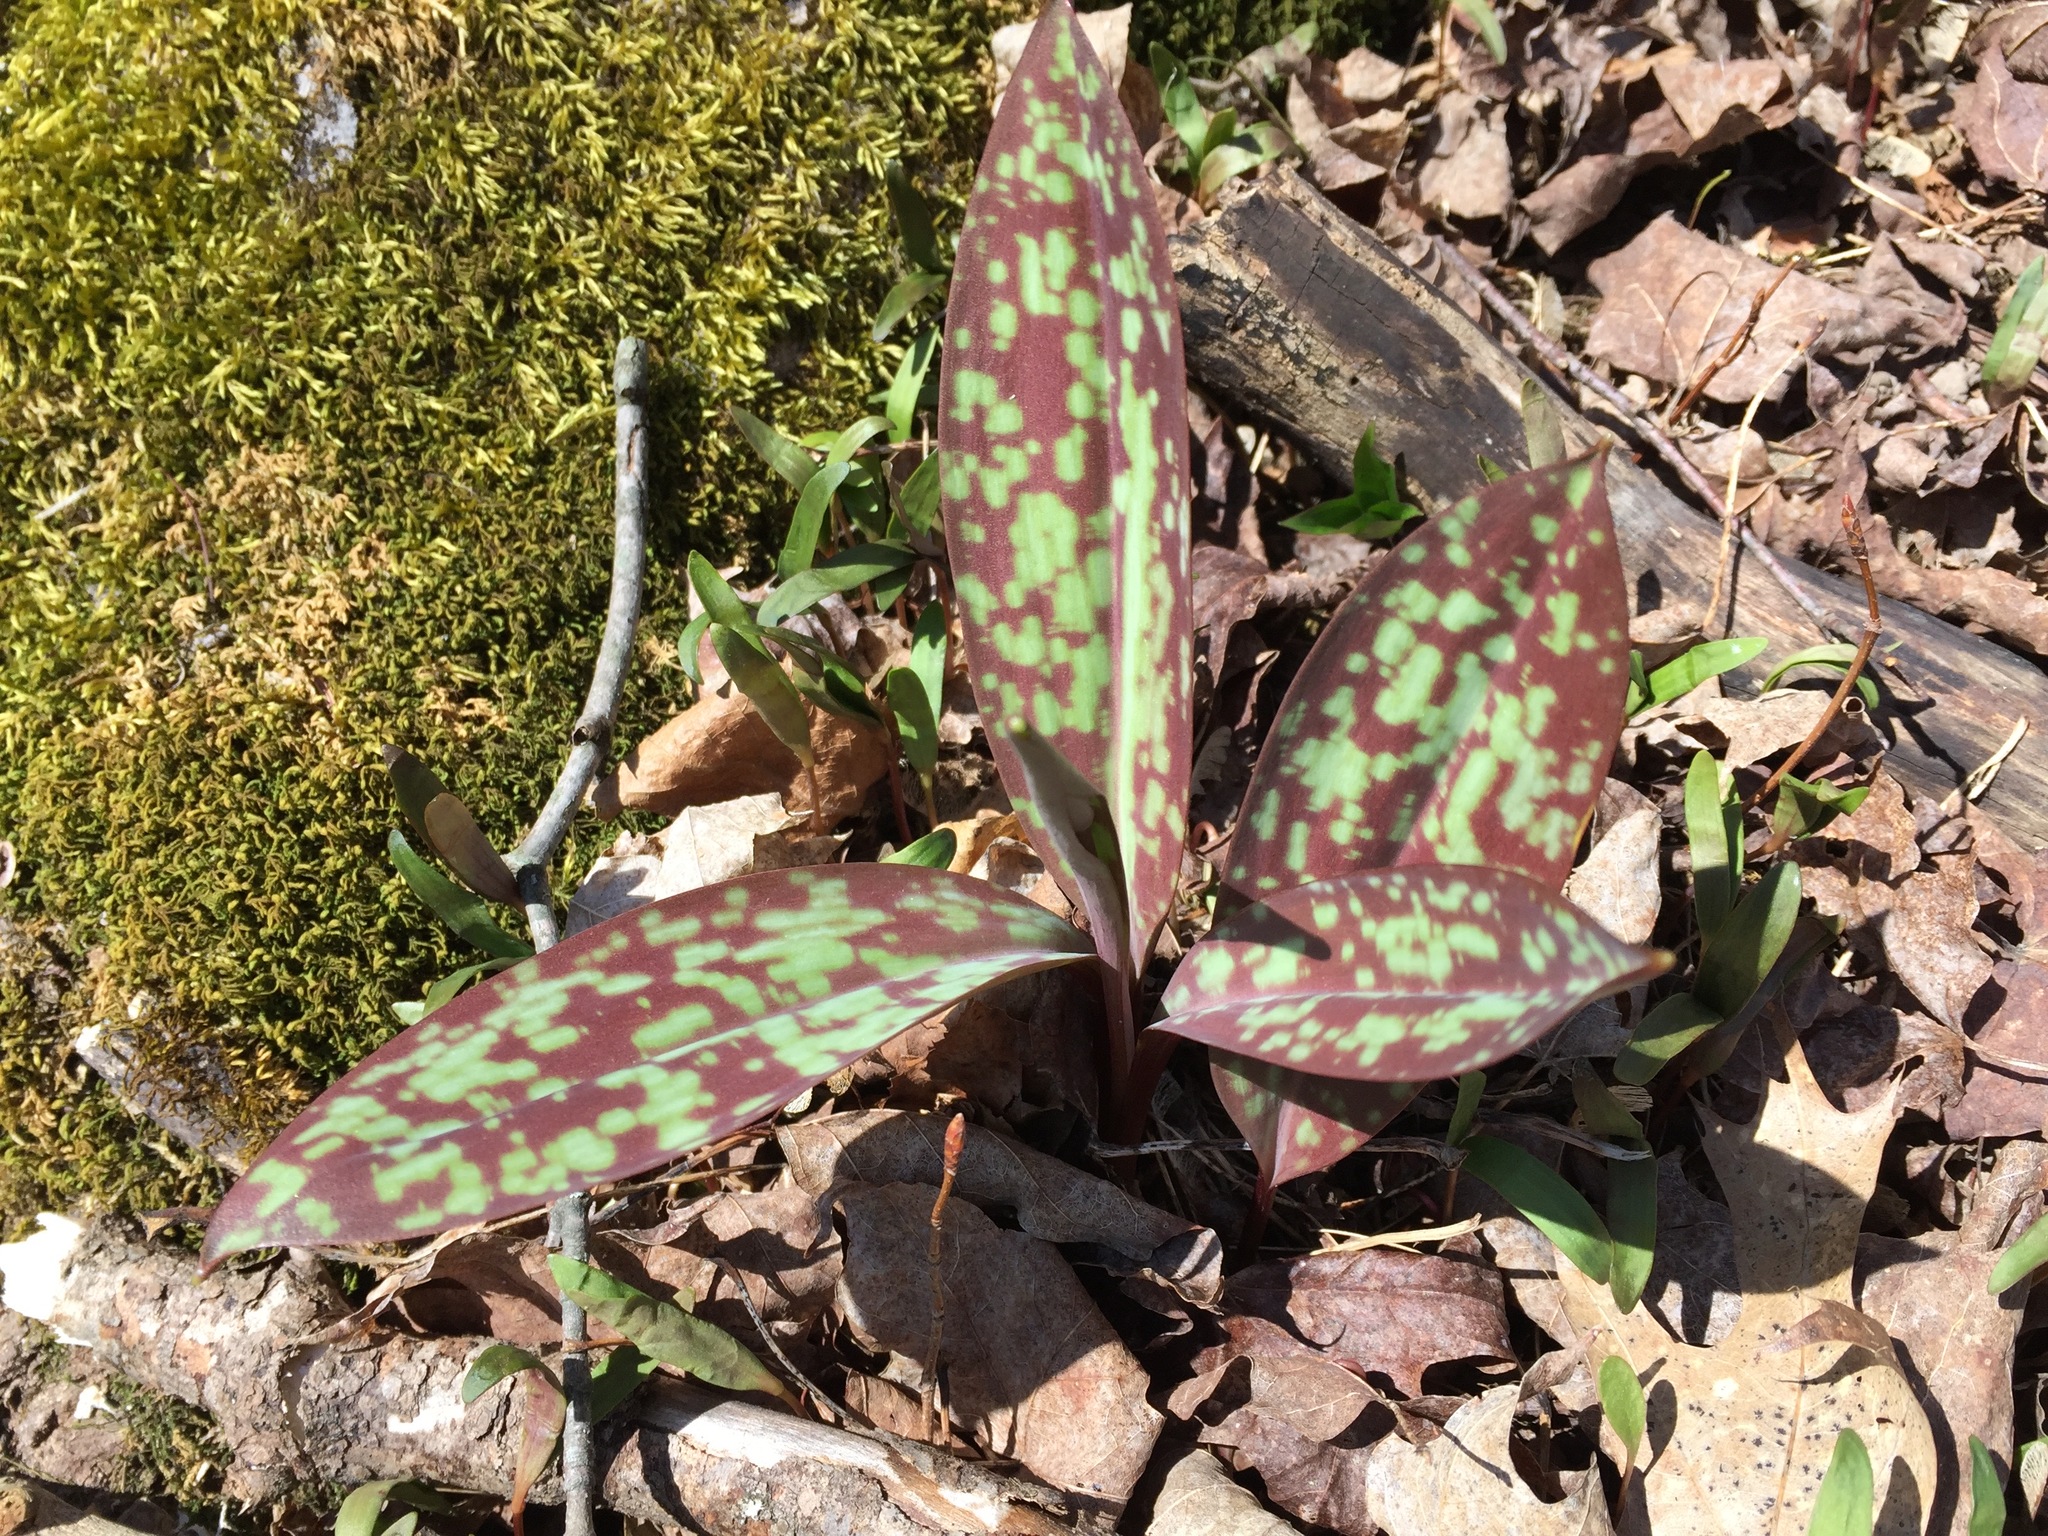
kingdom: Plantae
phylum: Tracheophyta
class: Liliopsida
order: Liliales
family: Liliaceae
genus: Erythronium
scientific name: Erythronium americanum
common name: Yellow adder's-tongue
